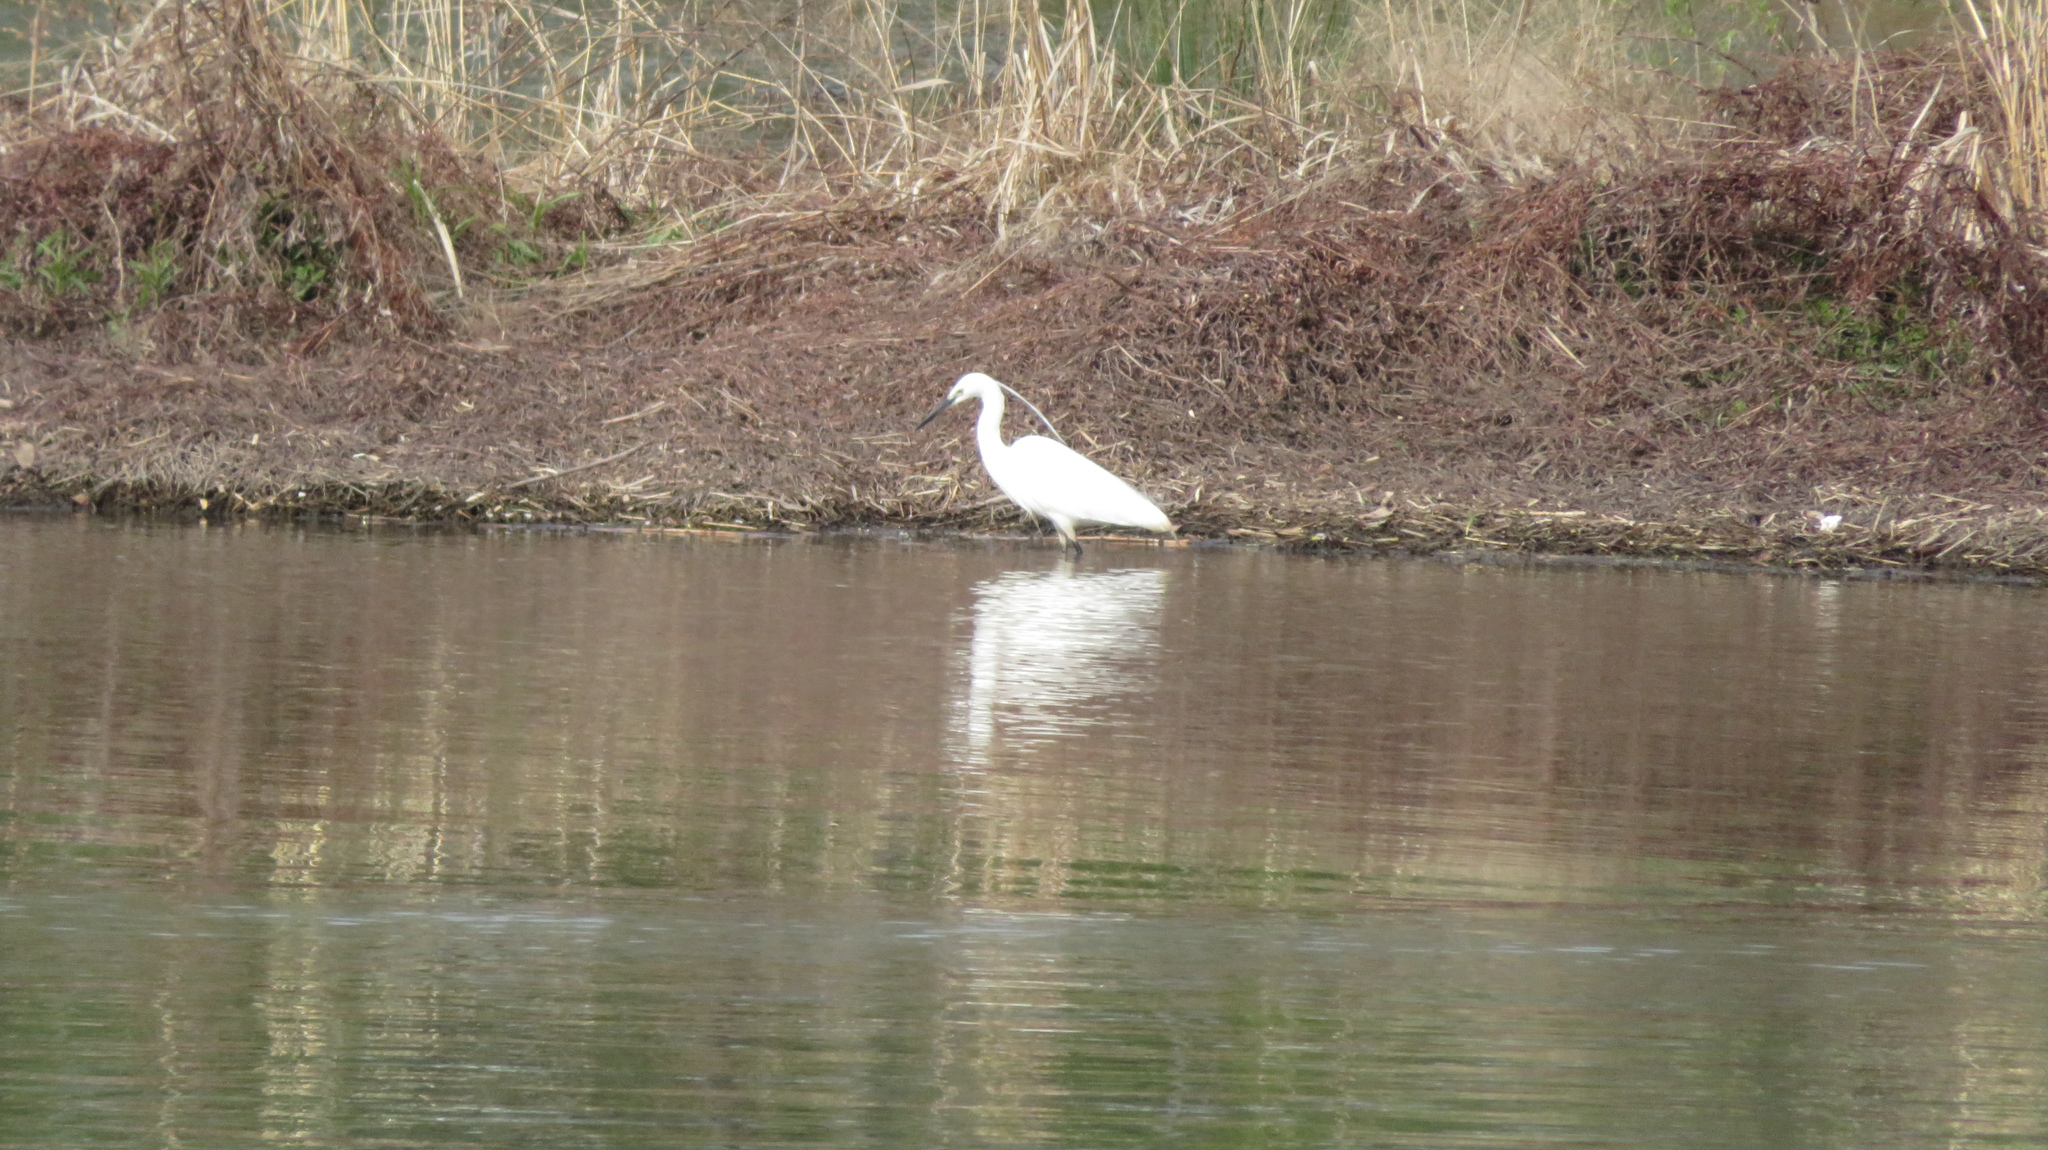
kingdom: Animalia
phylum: Chordata
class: Aves
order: Pelecaniformes
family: Ardeidae
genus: Egretta
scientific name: Egretta garzetta
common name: Little egret
